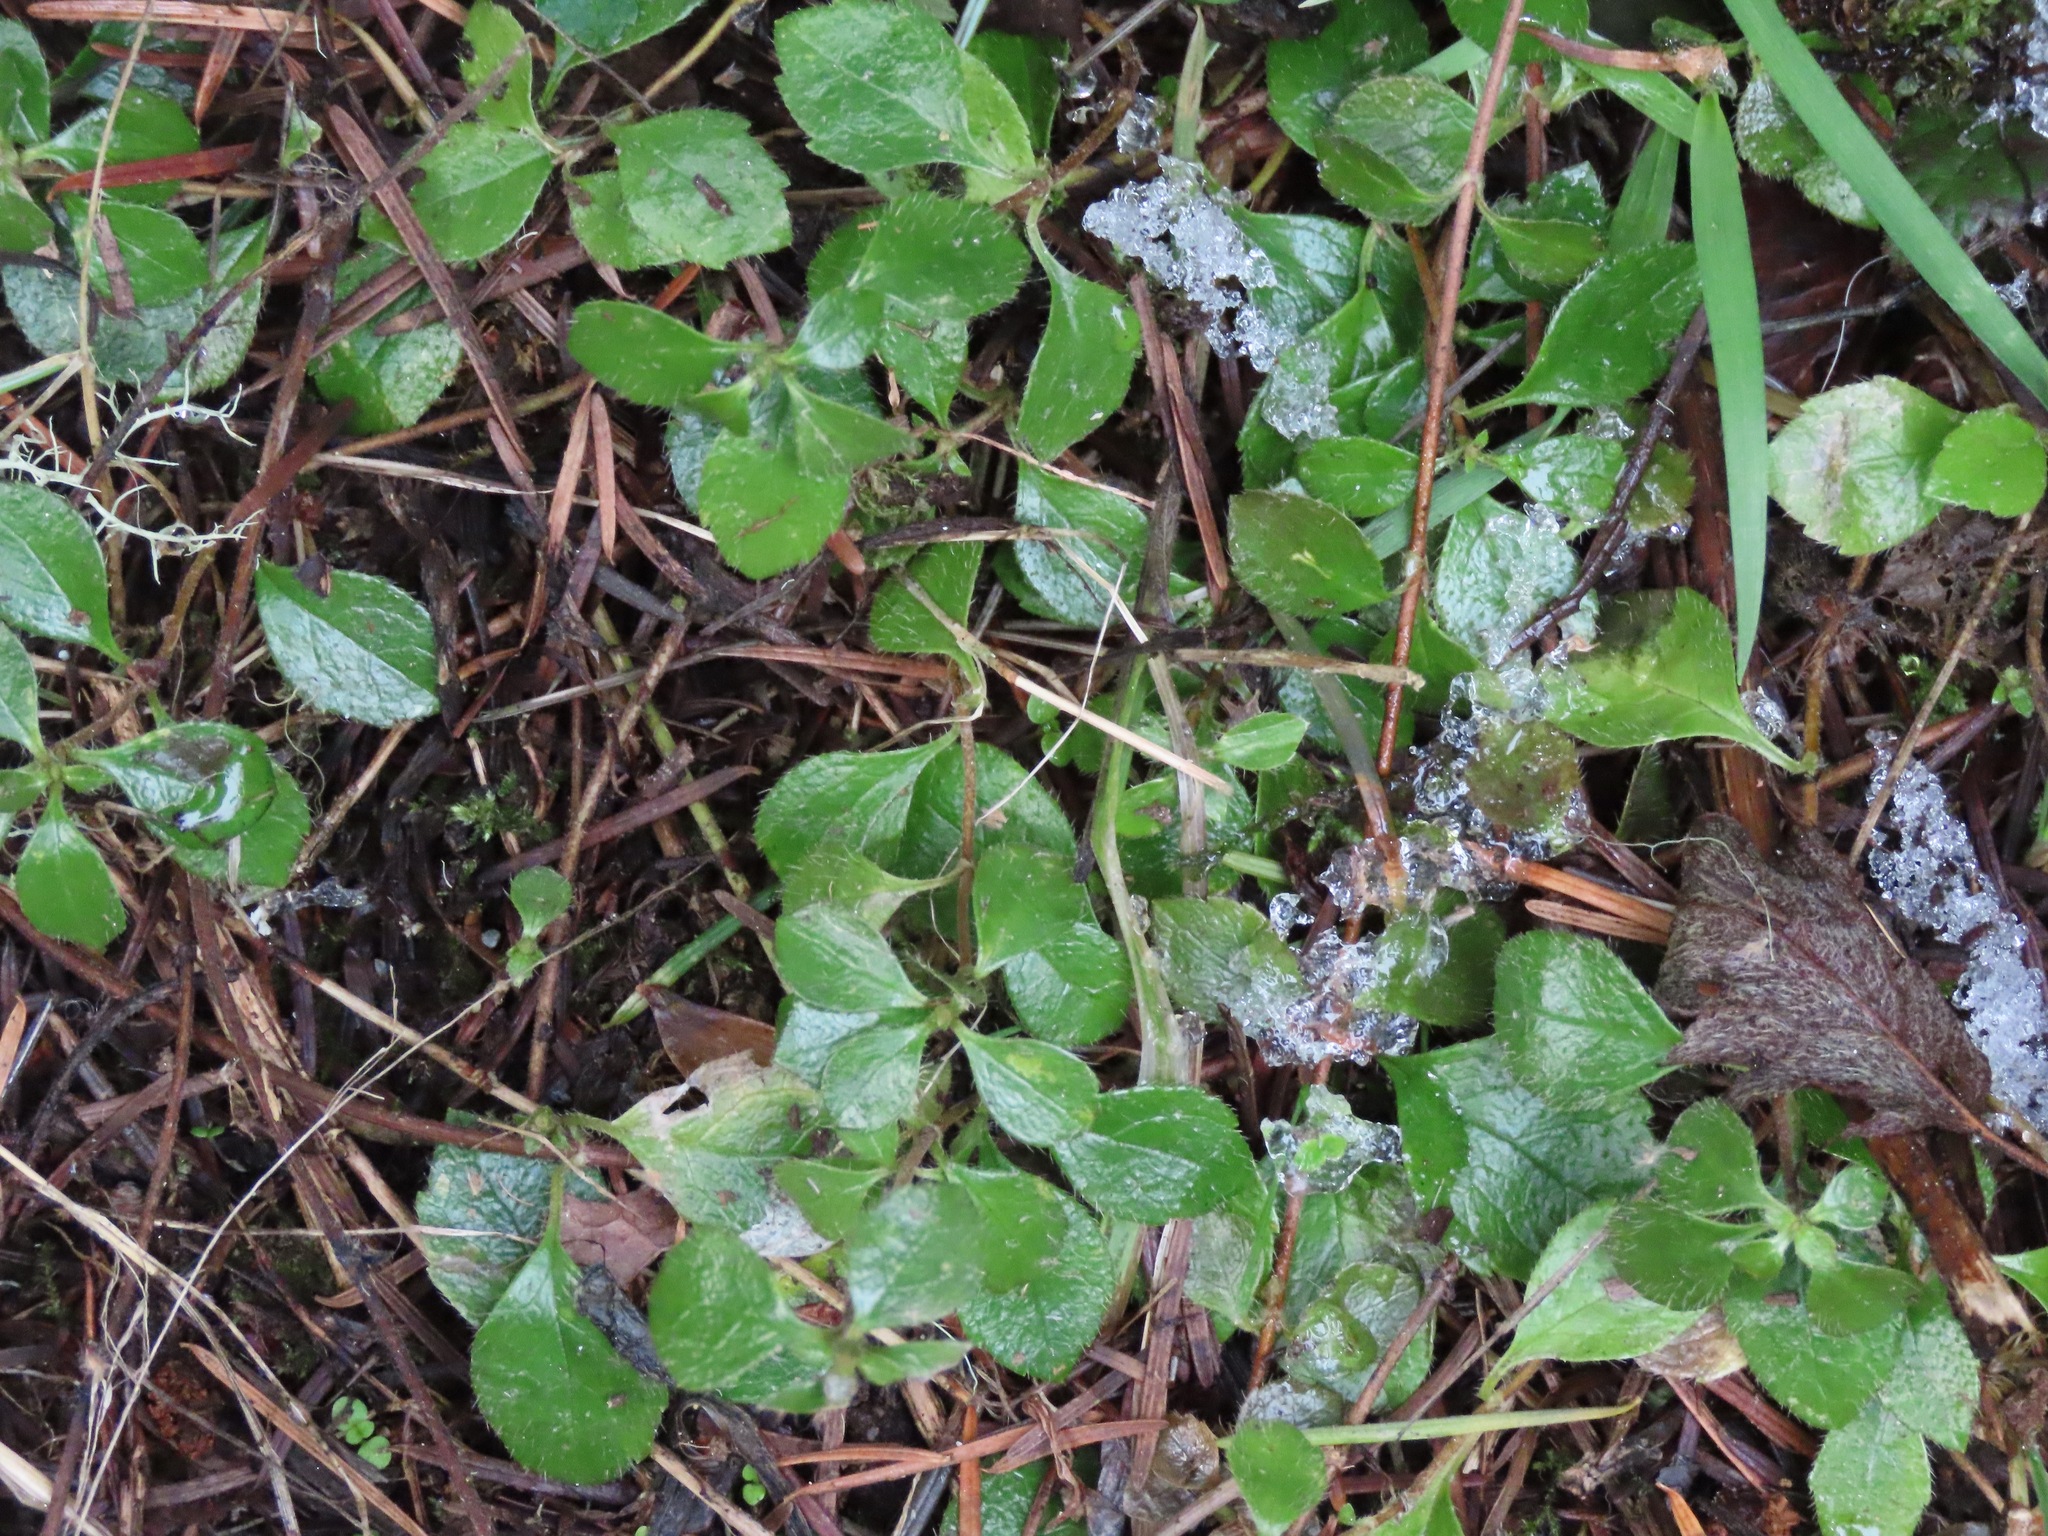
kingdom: Plantae
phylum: Tracheophyta
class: Magnoliopsida
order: Dipsacales
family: Caprifoliaceae
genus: Linnaea
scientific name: Linnaea borealis
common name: Twinflower
